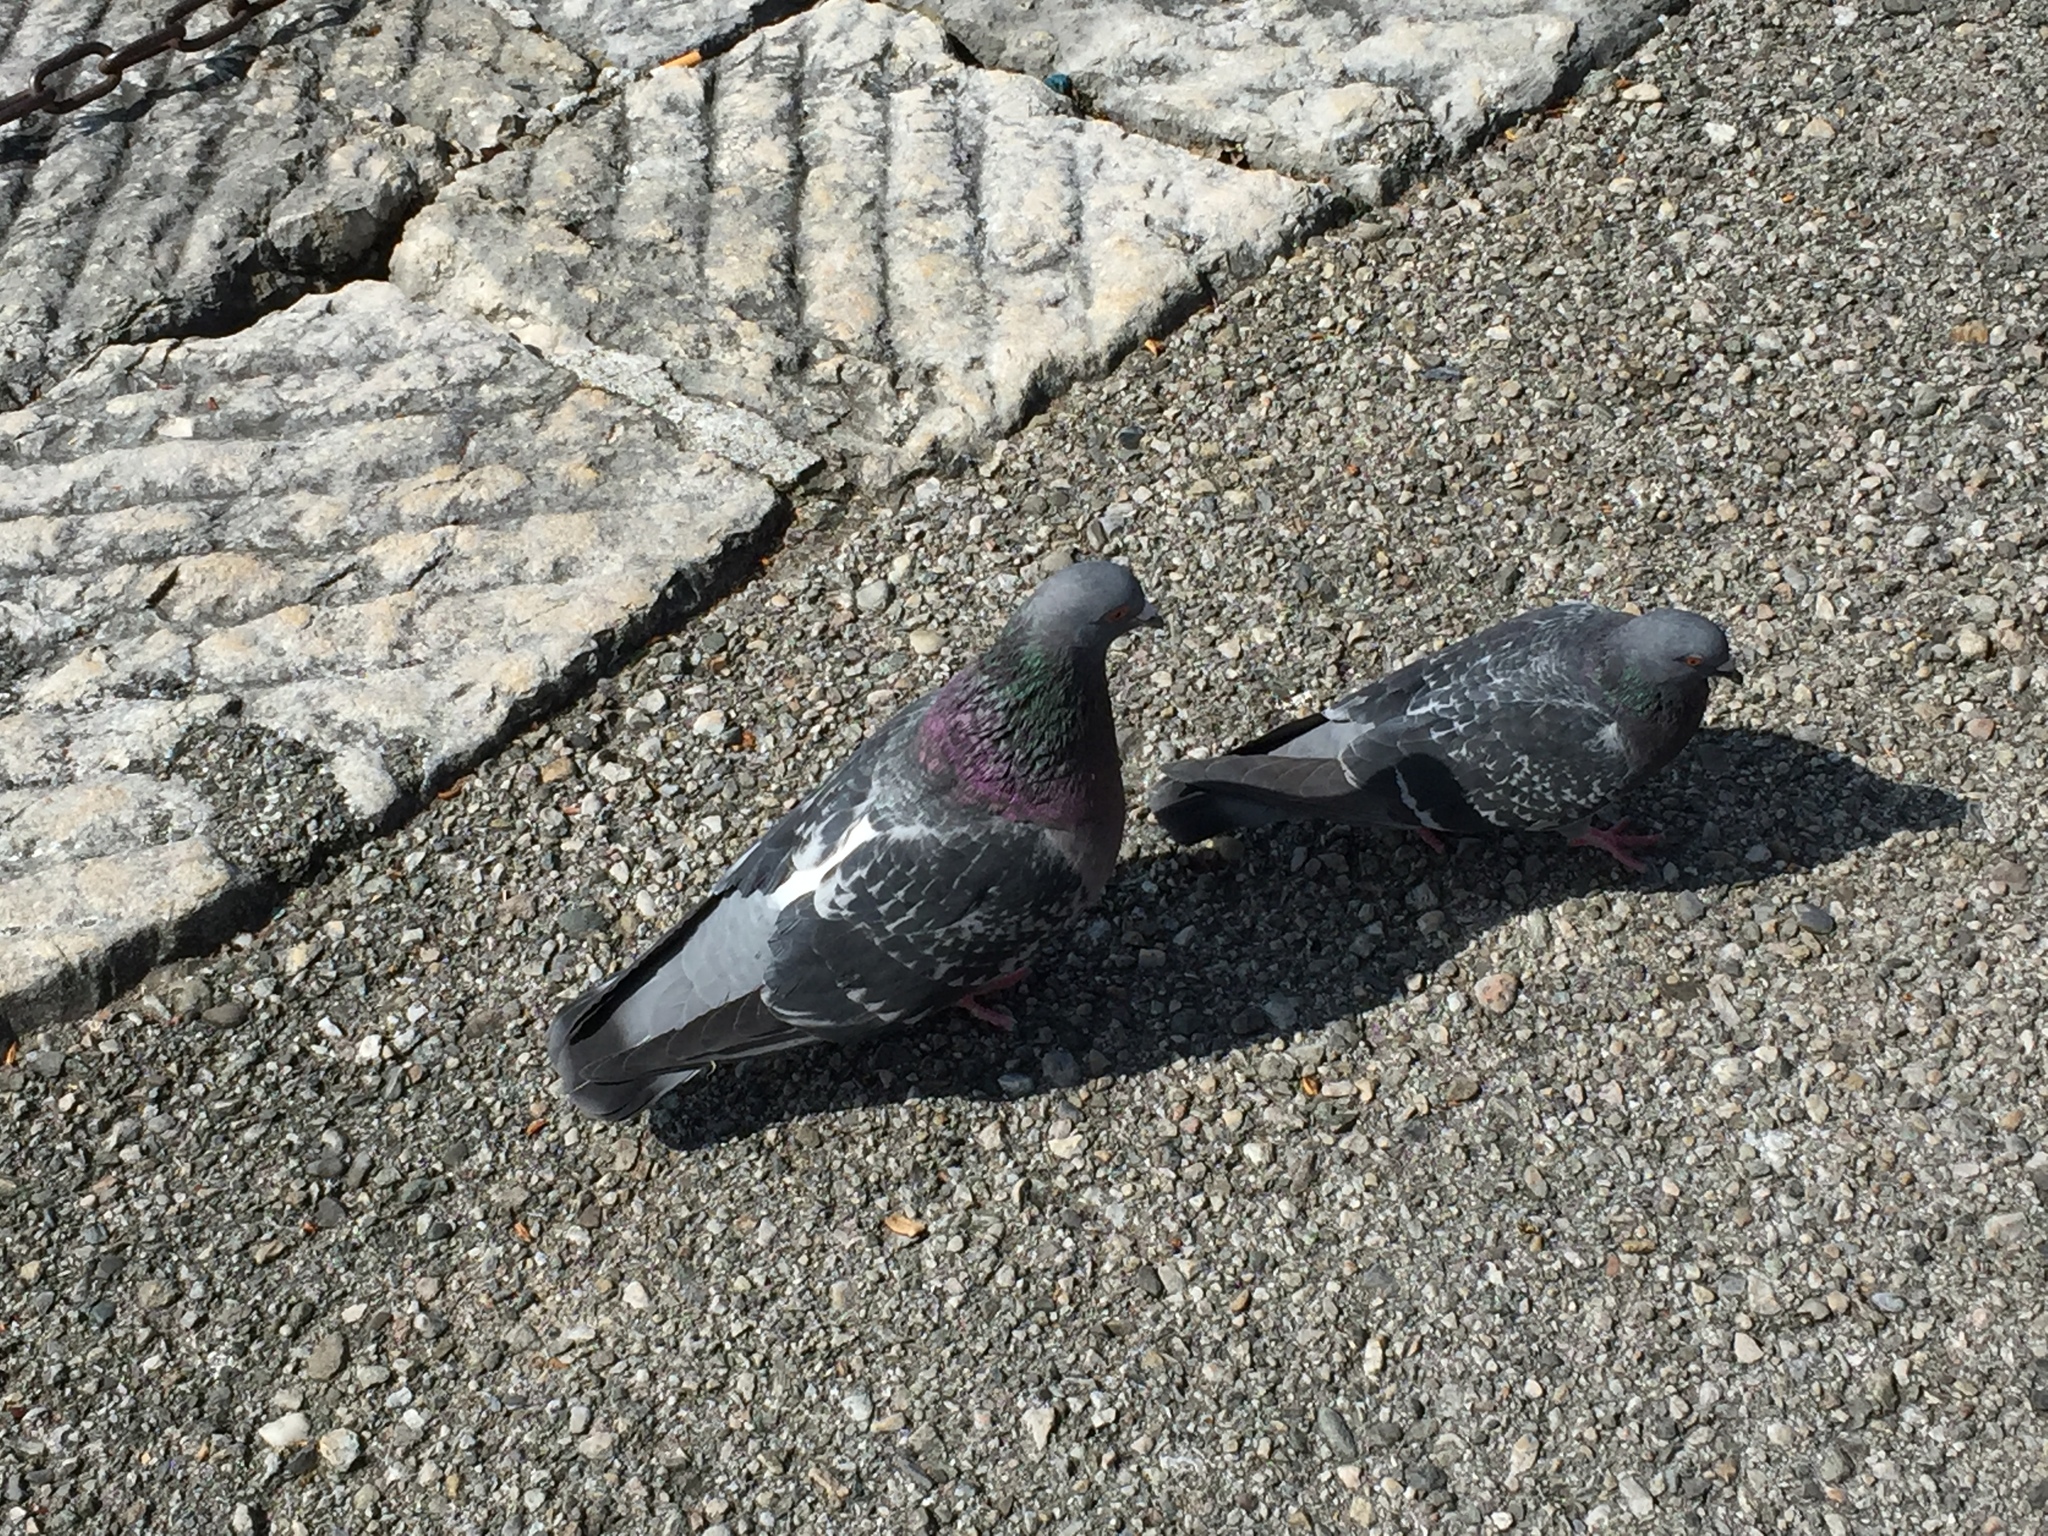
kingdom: Animalia
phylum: Chordata
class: Aves
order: Columbiformes
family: Columbidae
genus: Columba
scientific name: Columba livia
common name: Rock pigeon
